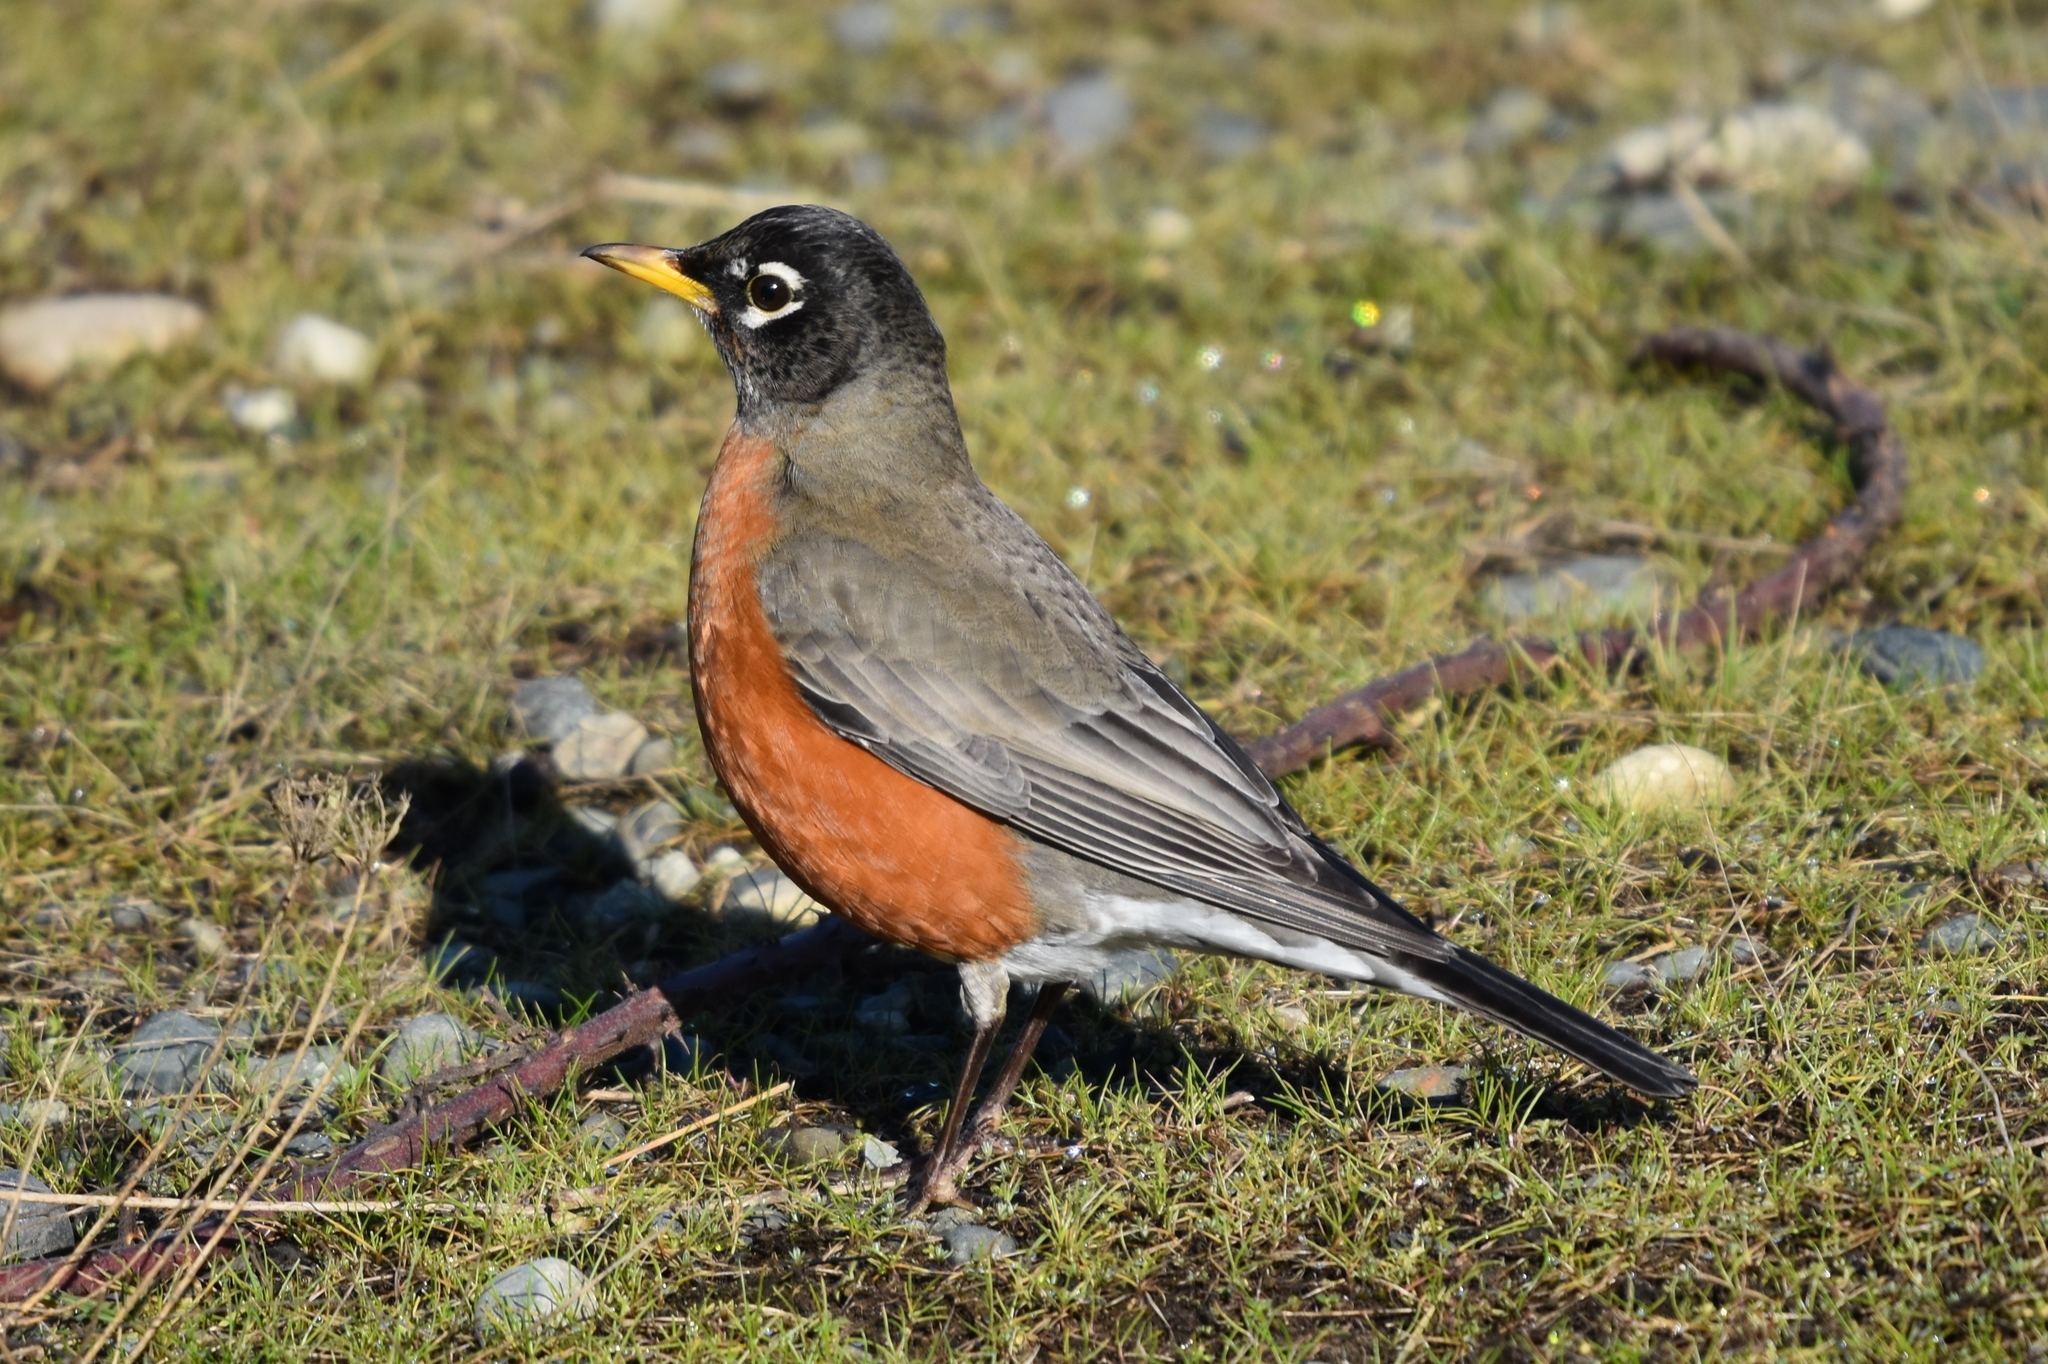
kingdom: Animalia
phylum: Chordata
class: Aves
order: Passeriformes
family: Turdidae
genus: Turdus
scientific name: Turdus migratorius
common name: American robin
